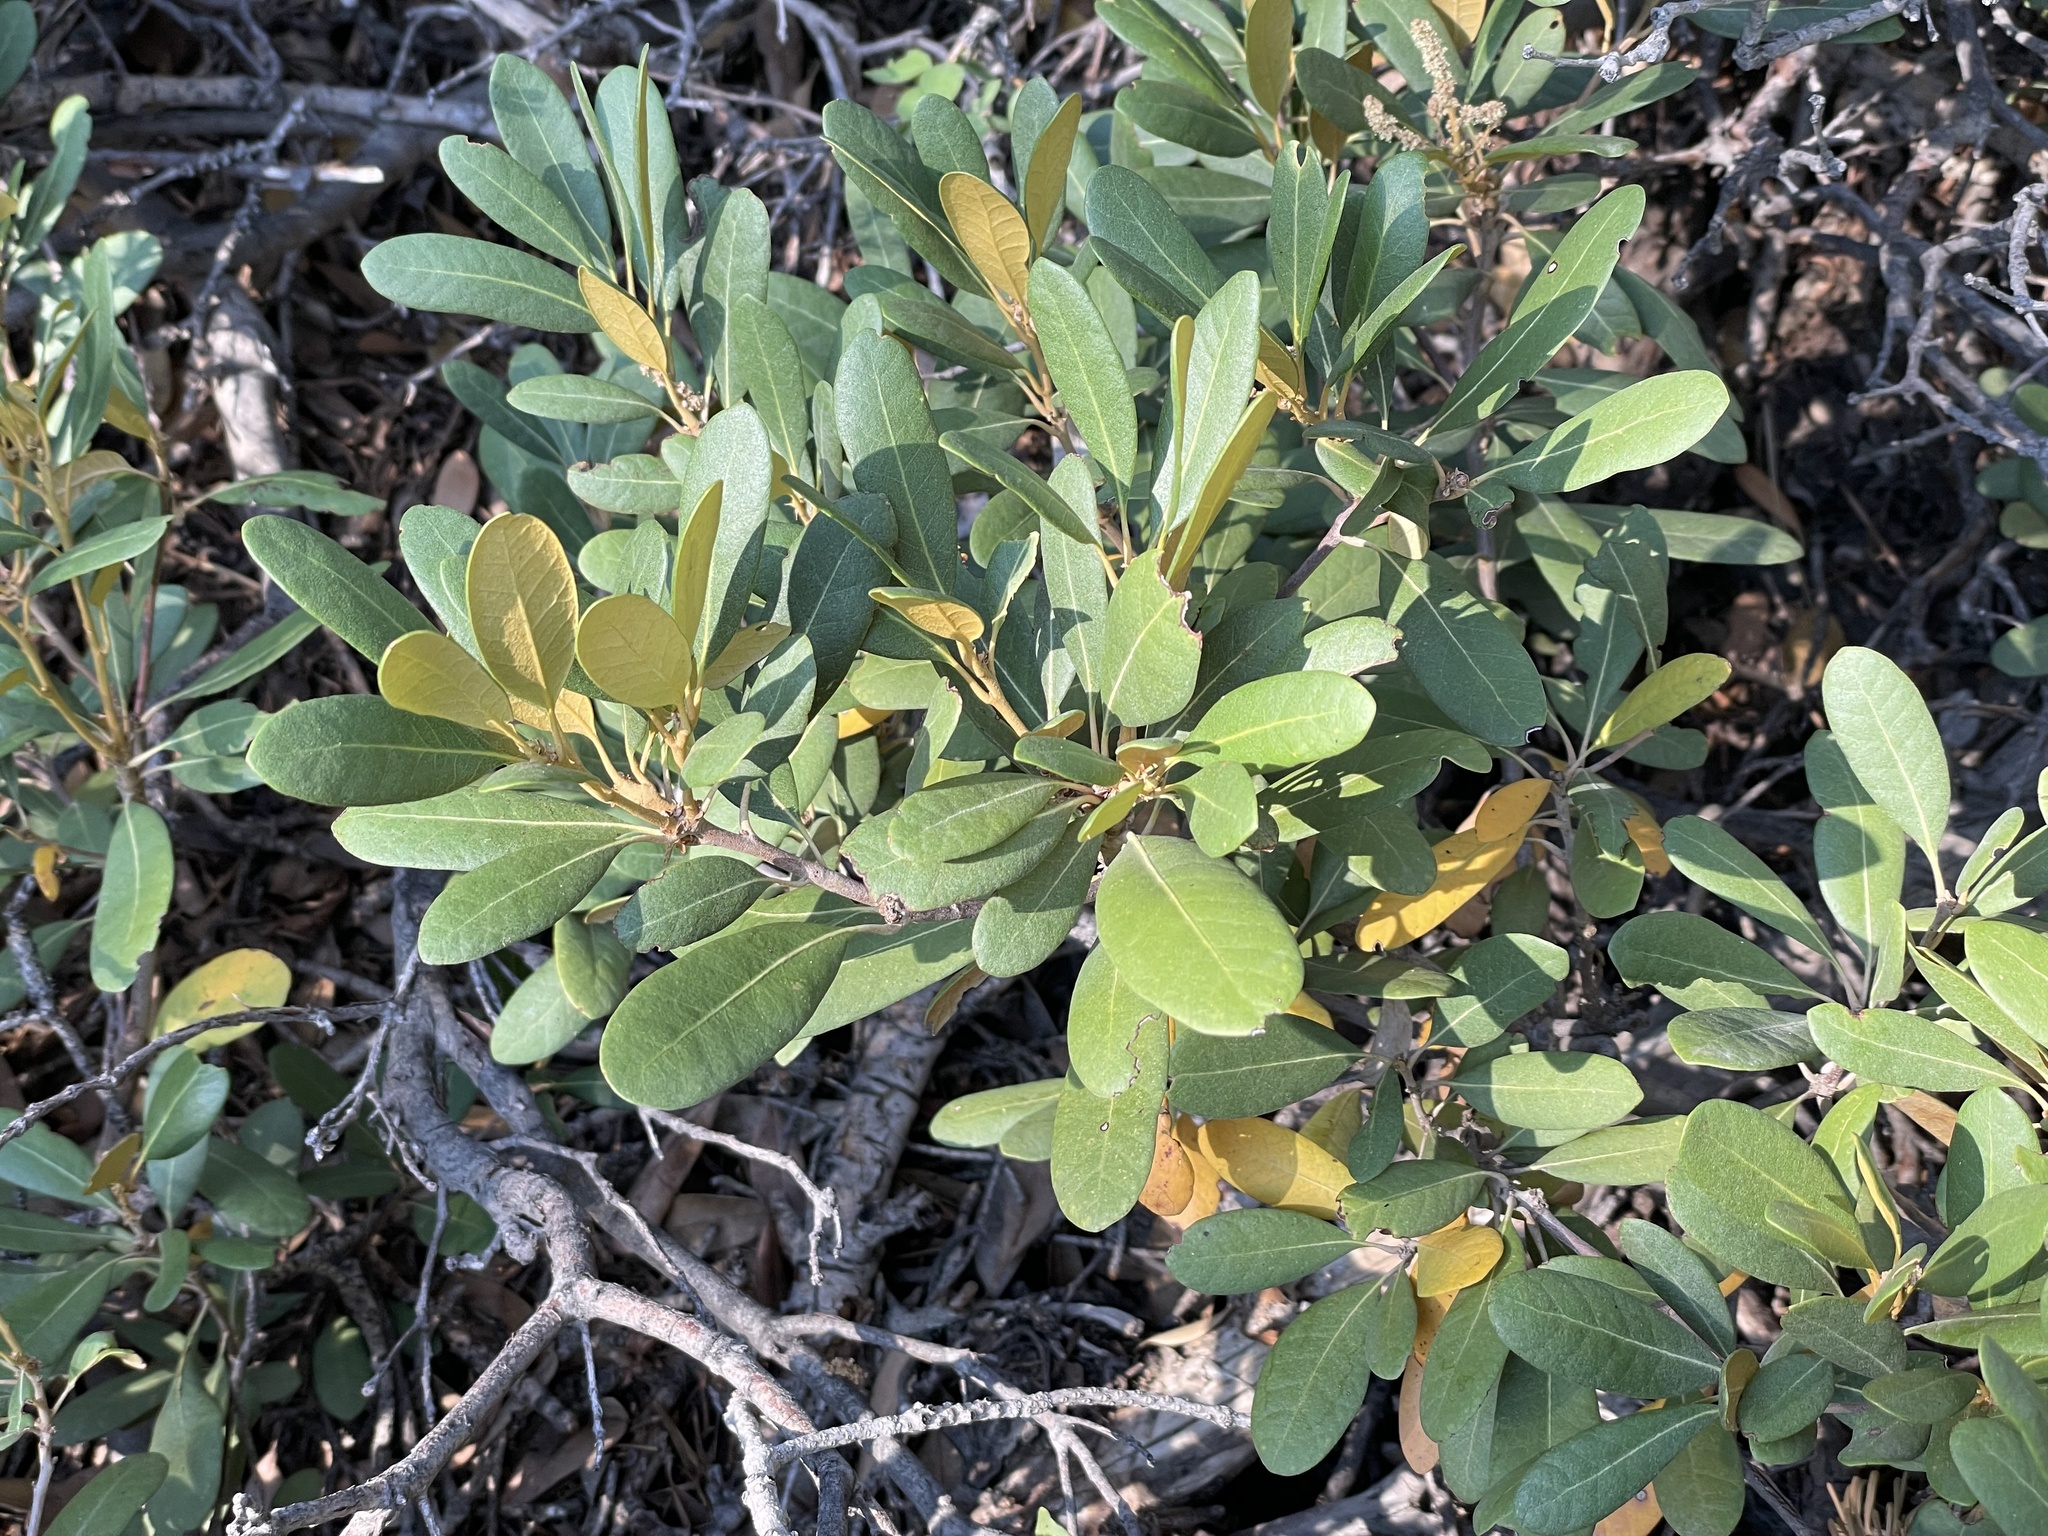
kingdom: Plantae
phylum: Tracheophyta
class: Magnoliopsida
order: Fagales
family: Fagaceae
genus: Chrysolepis
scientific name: Chrysolepis sempervirens
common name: Bush chinquapin
